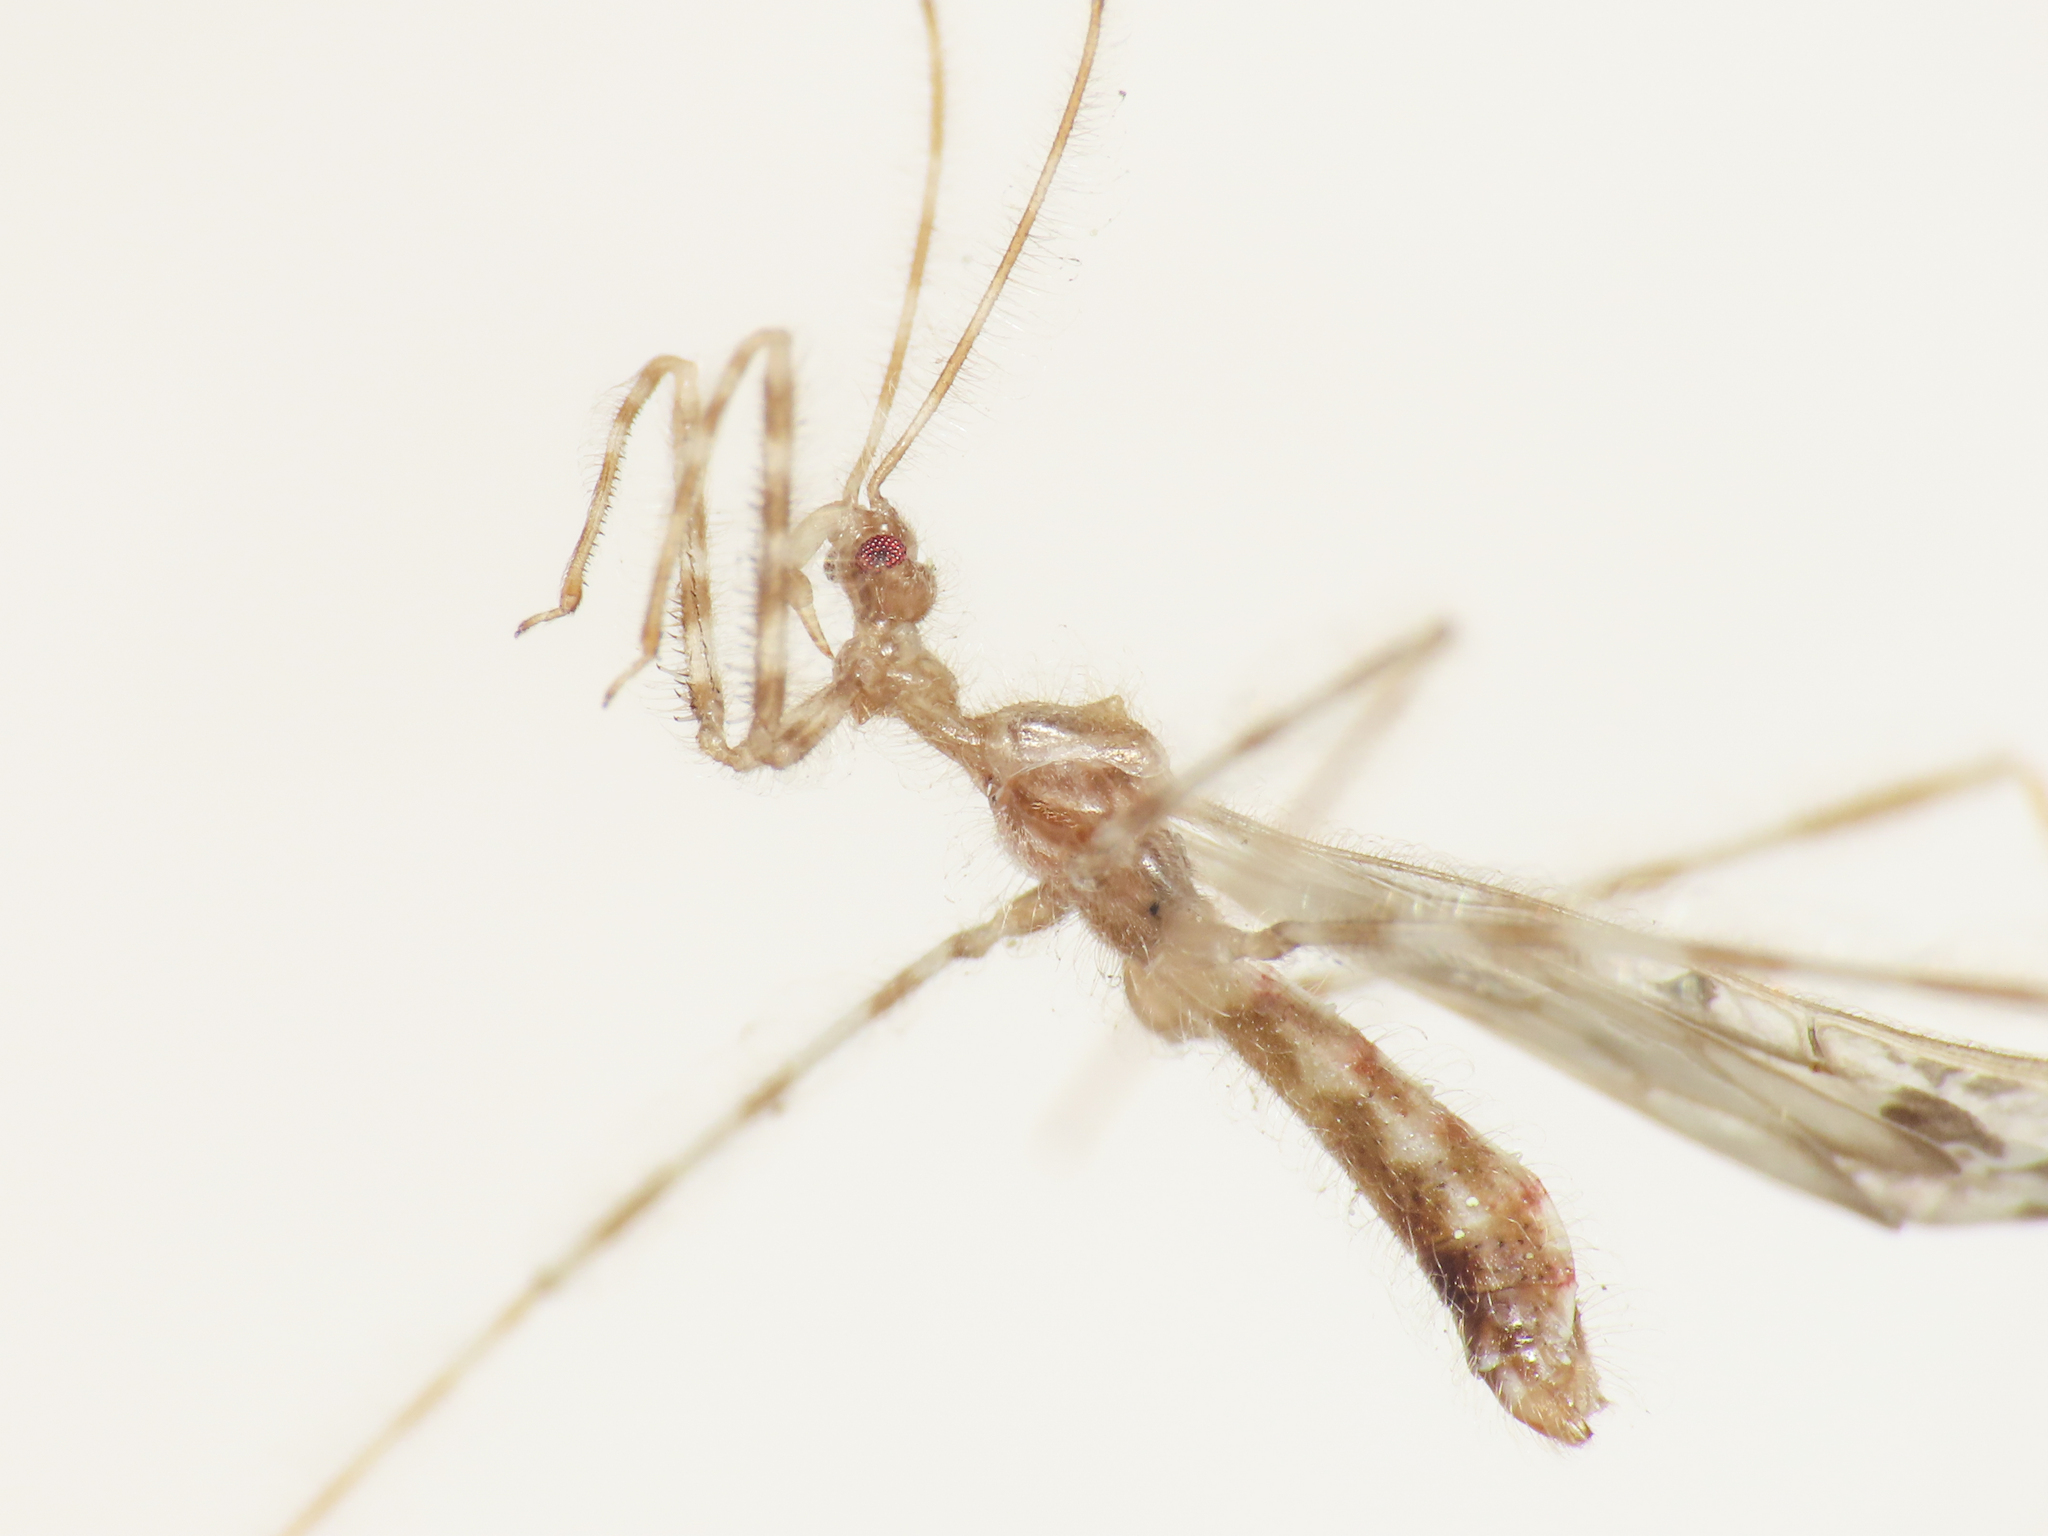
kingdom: Animalia
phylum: Arthropoda
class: Insecta
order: Hemiptera
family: Reduviidae
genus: Stenolemus
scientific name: Stenolemus novaki
